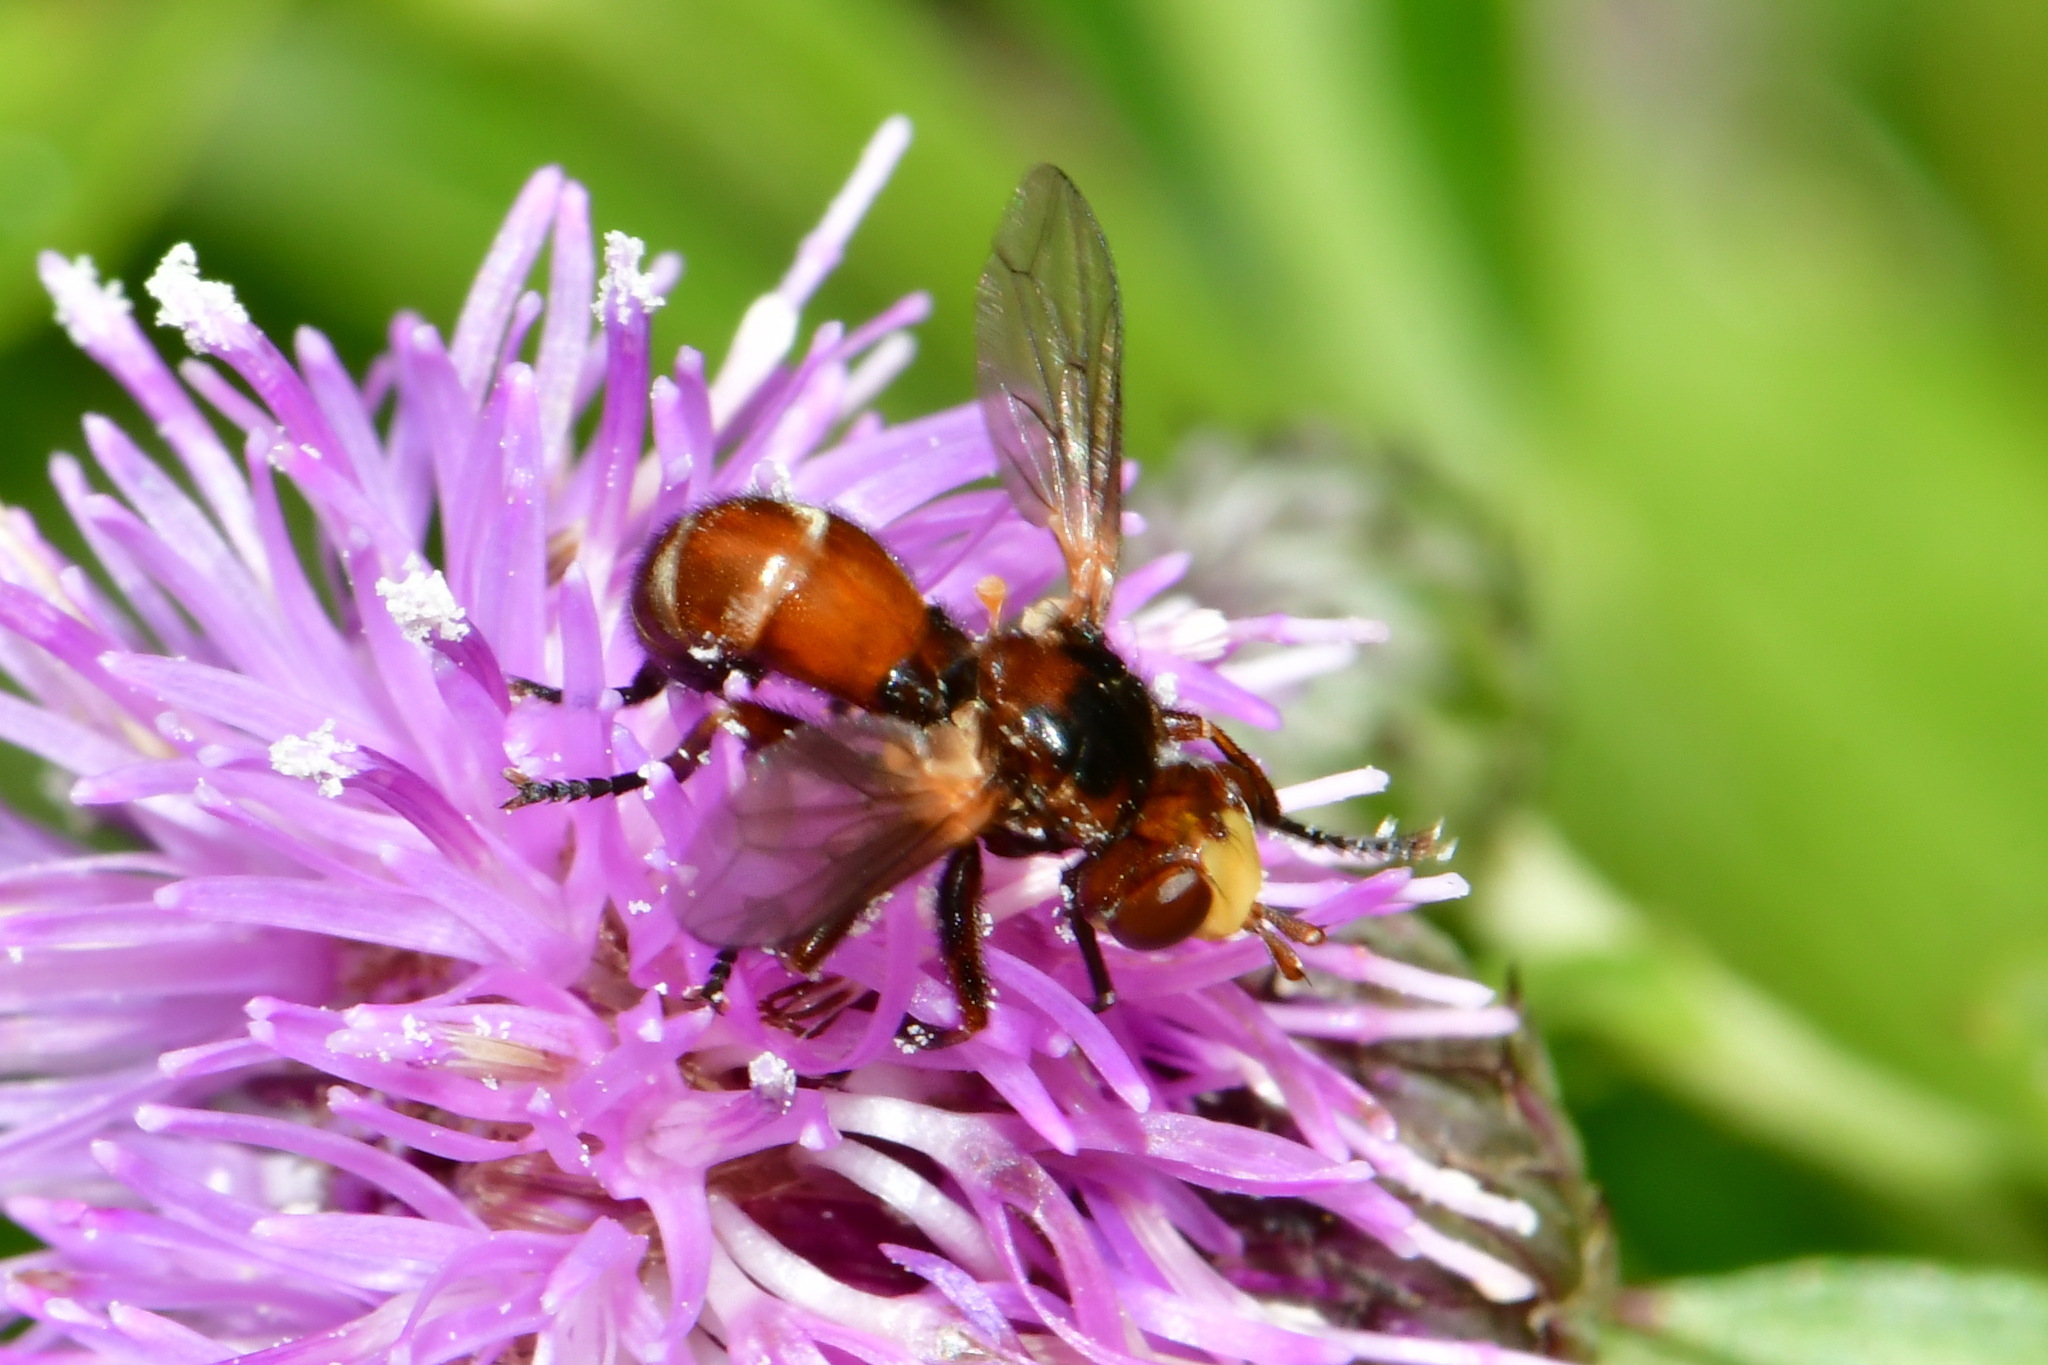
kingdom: Animalia
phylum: Arthropoda
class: Insecta
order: Diptera
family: Conopidae
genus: Sicus
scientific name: Sicus ferrugineus
